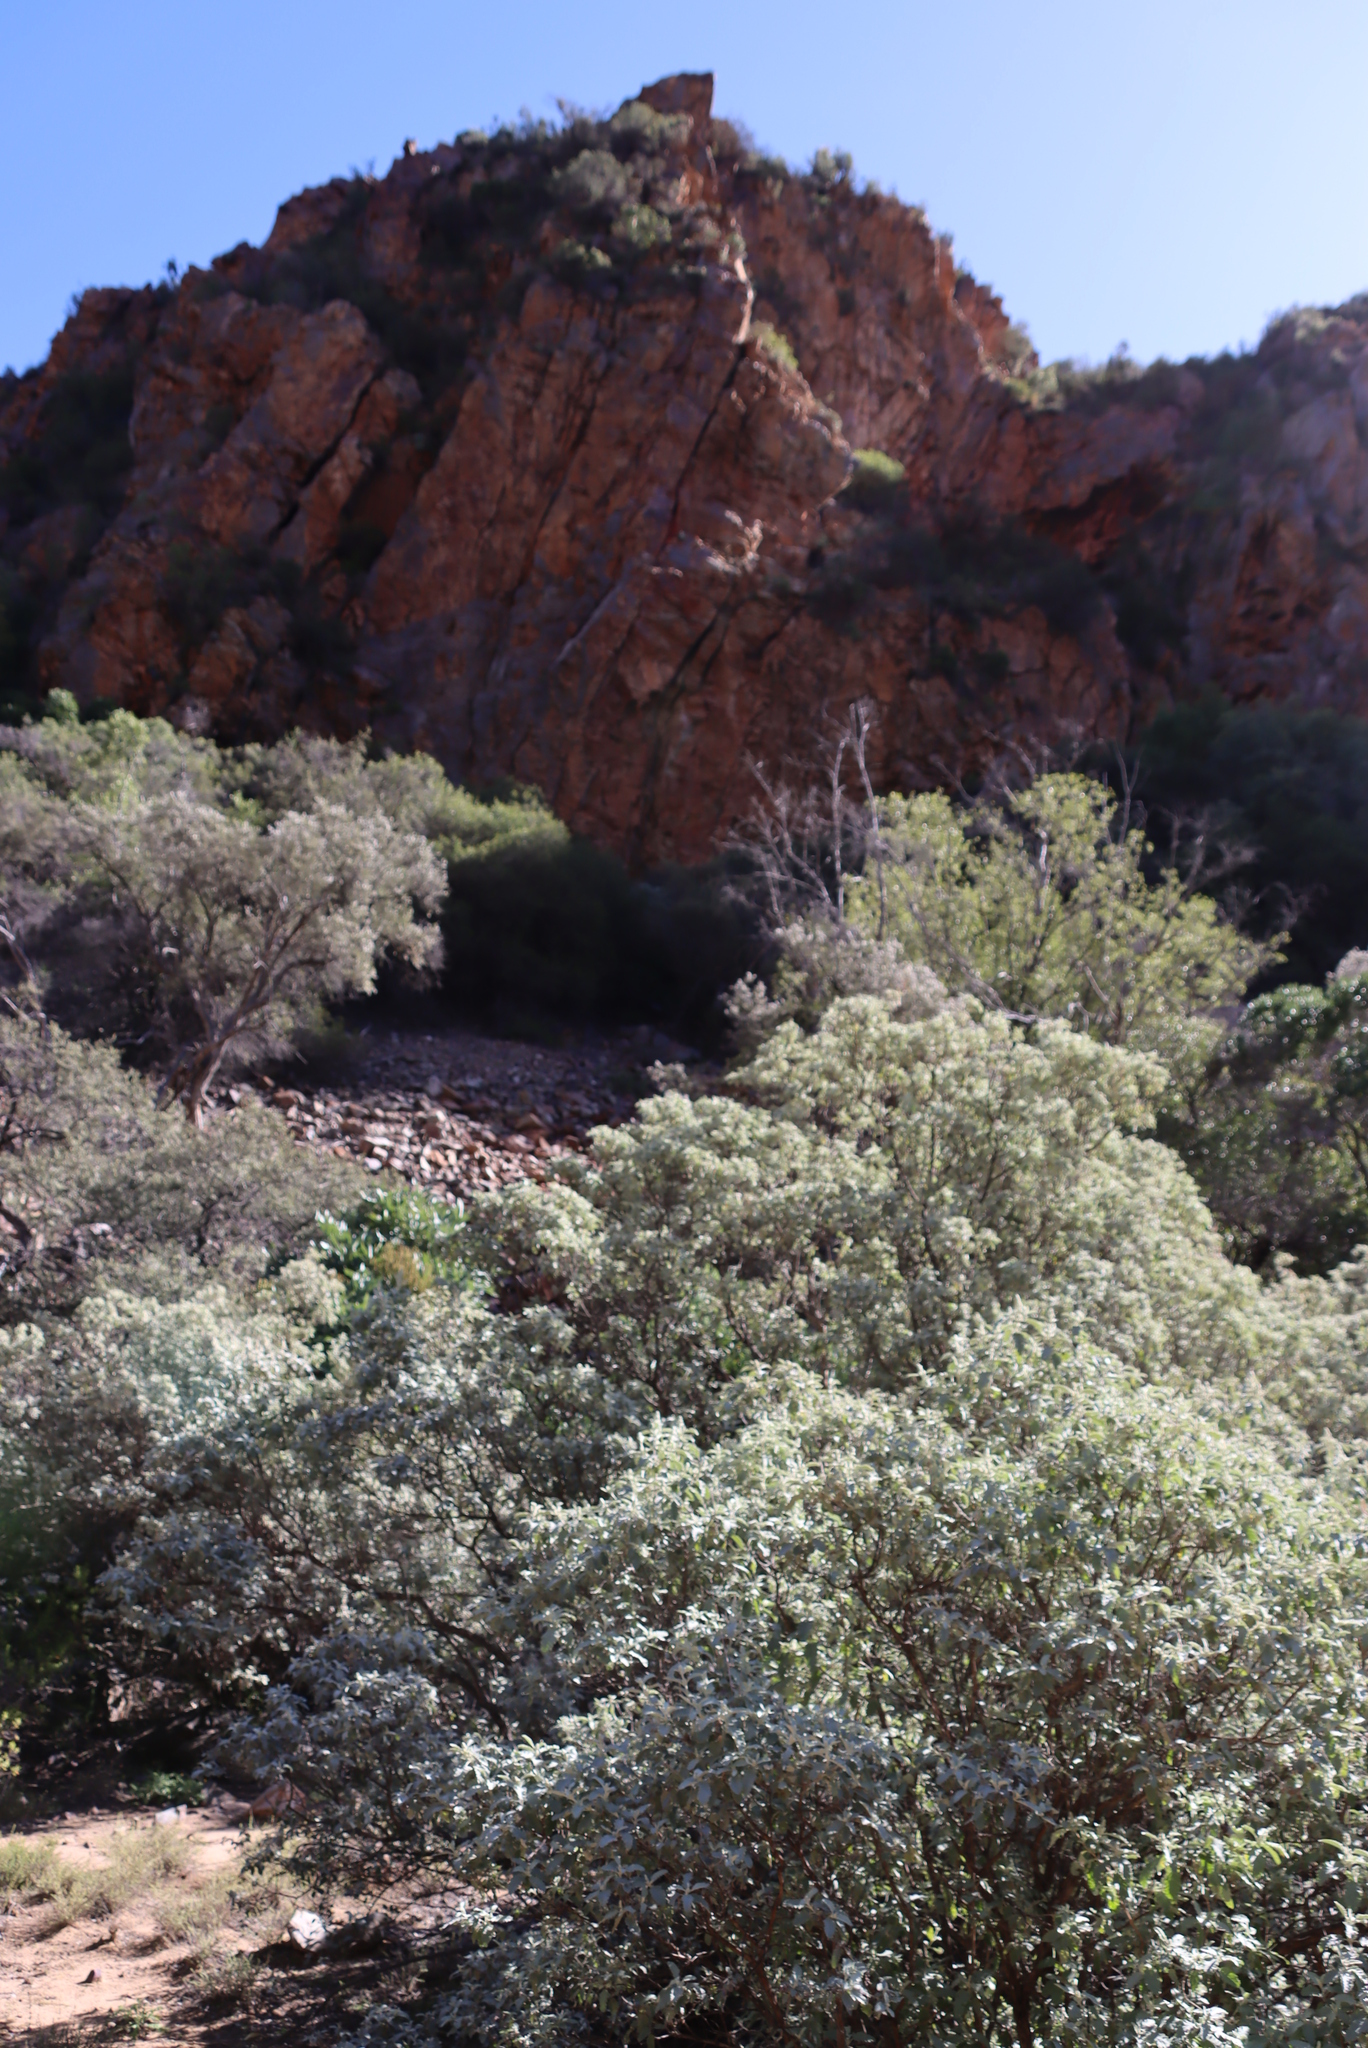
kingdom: Plantae
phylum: Tracheophyta
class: Magnoliopsida
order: Lamiales
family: Scrophulariaceae
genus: Buddleja
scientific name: Buddleja glomerata
